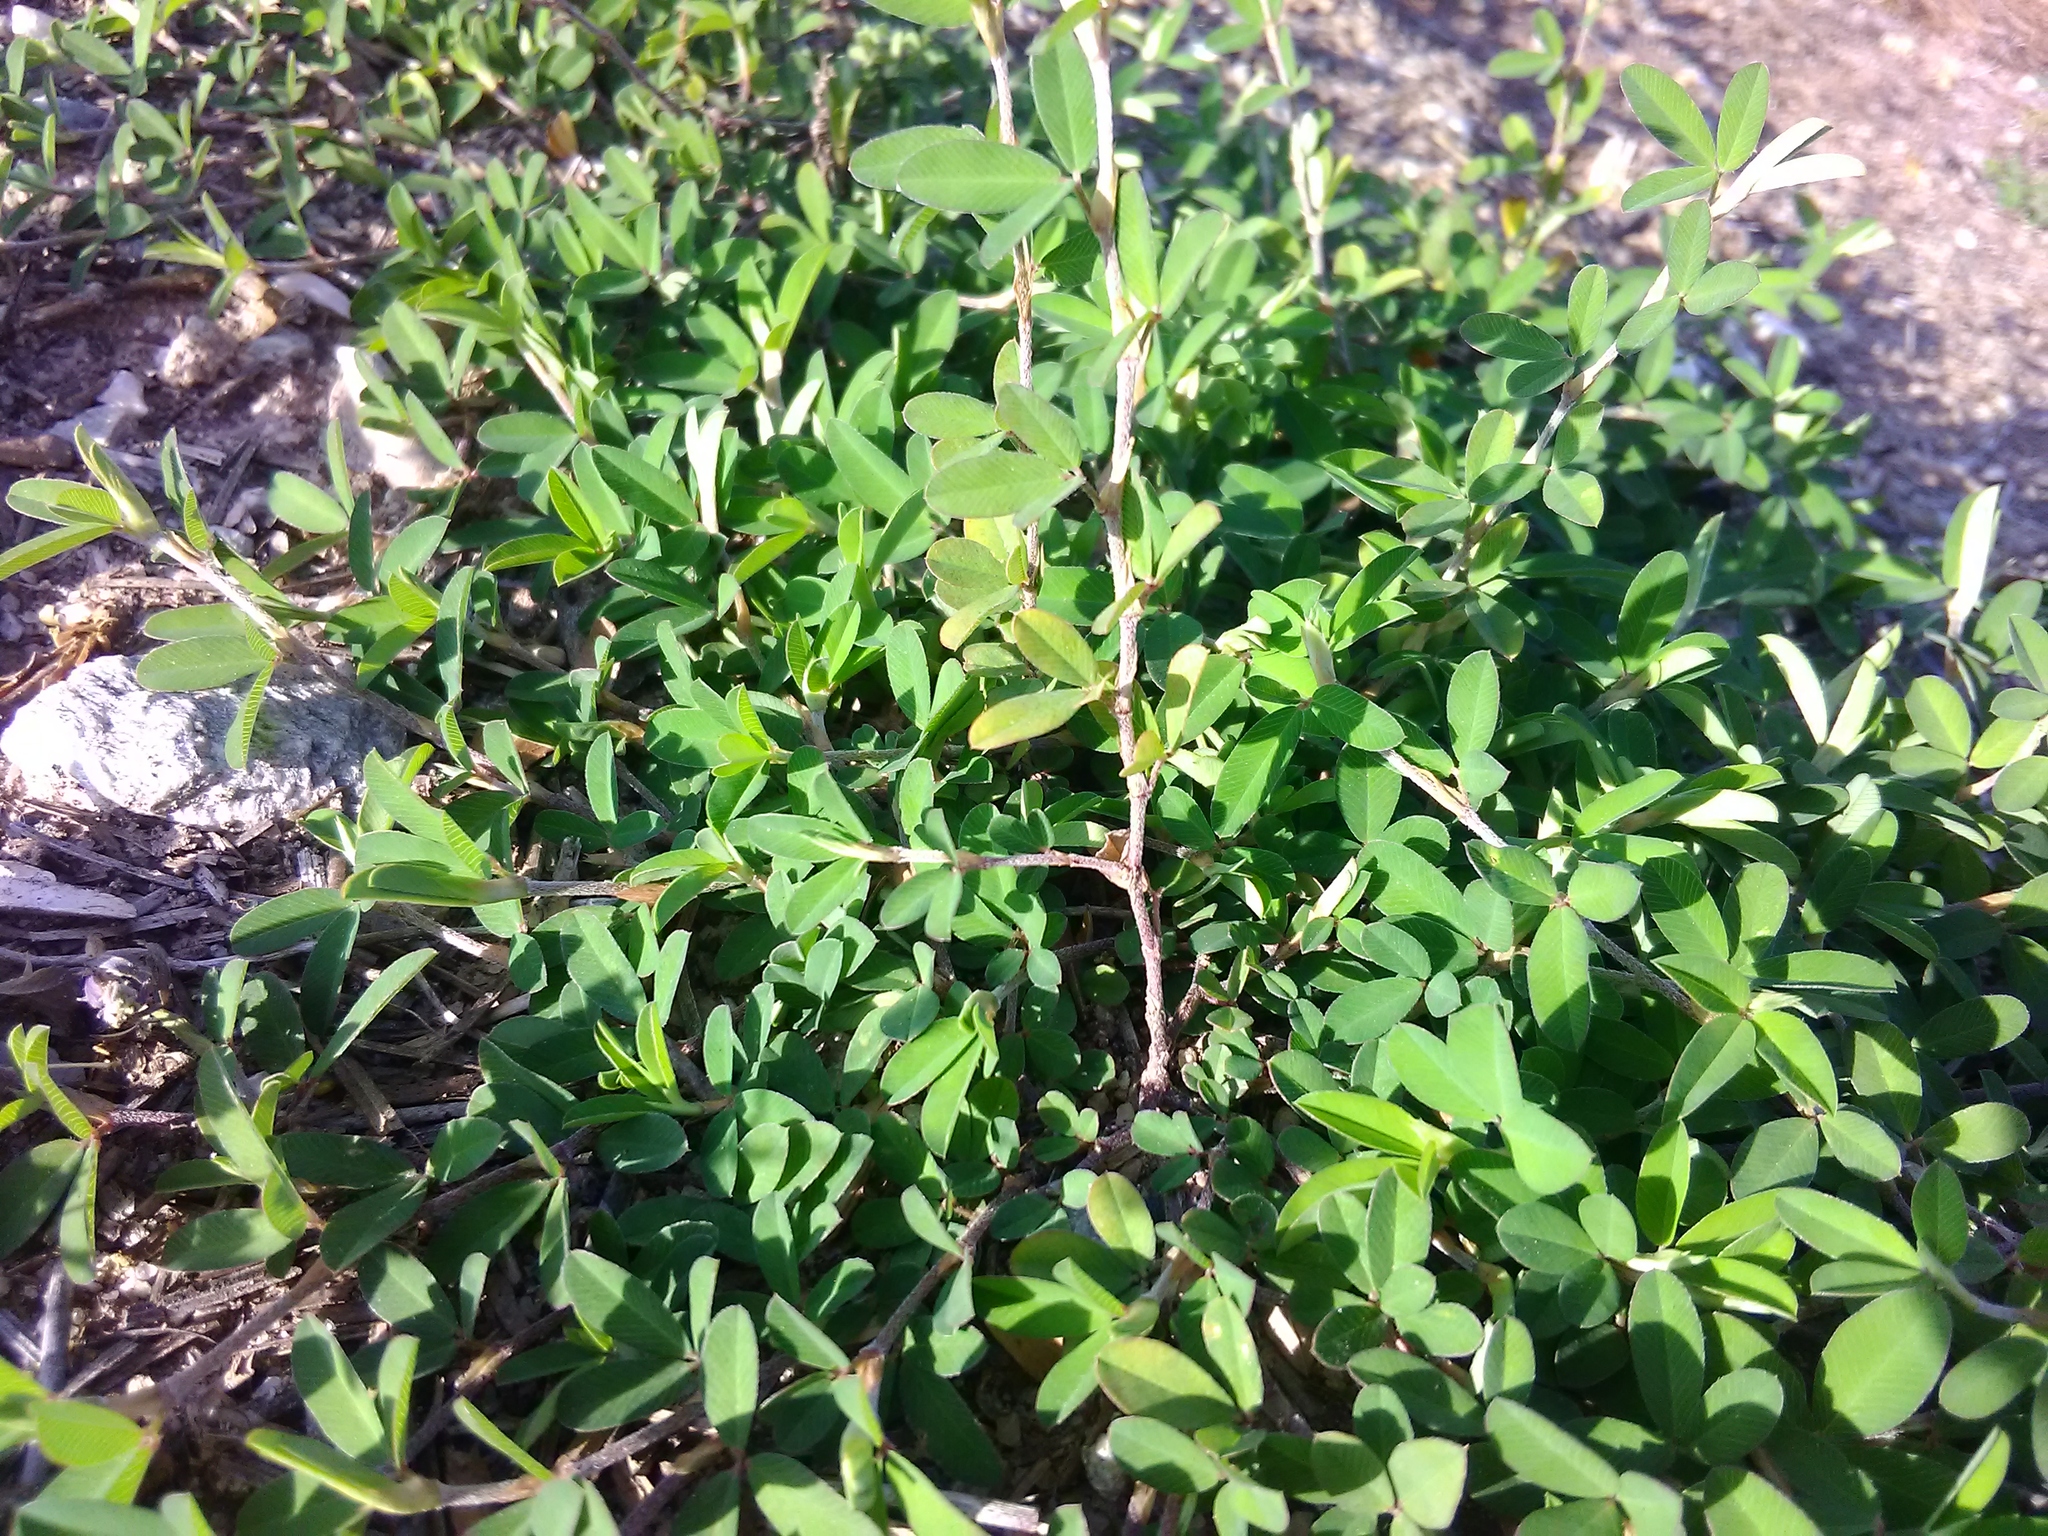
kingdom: Plantae
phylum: Tracheophyta
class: Magnoliopsida
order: Fabales
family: Fabaceae
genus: Kummerowia
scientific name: Kummerowia striata
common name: Japanese clover
